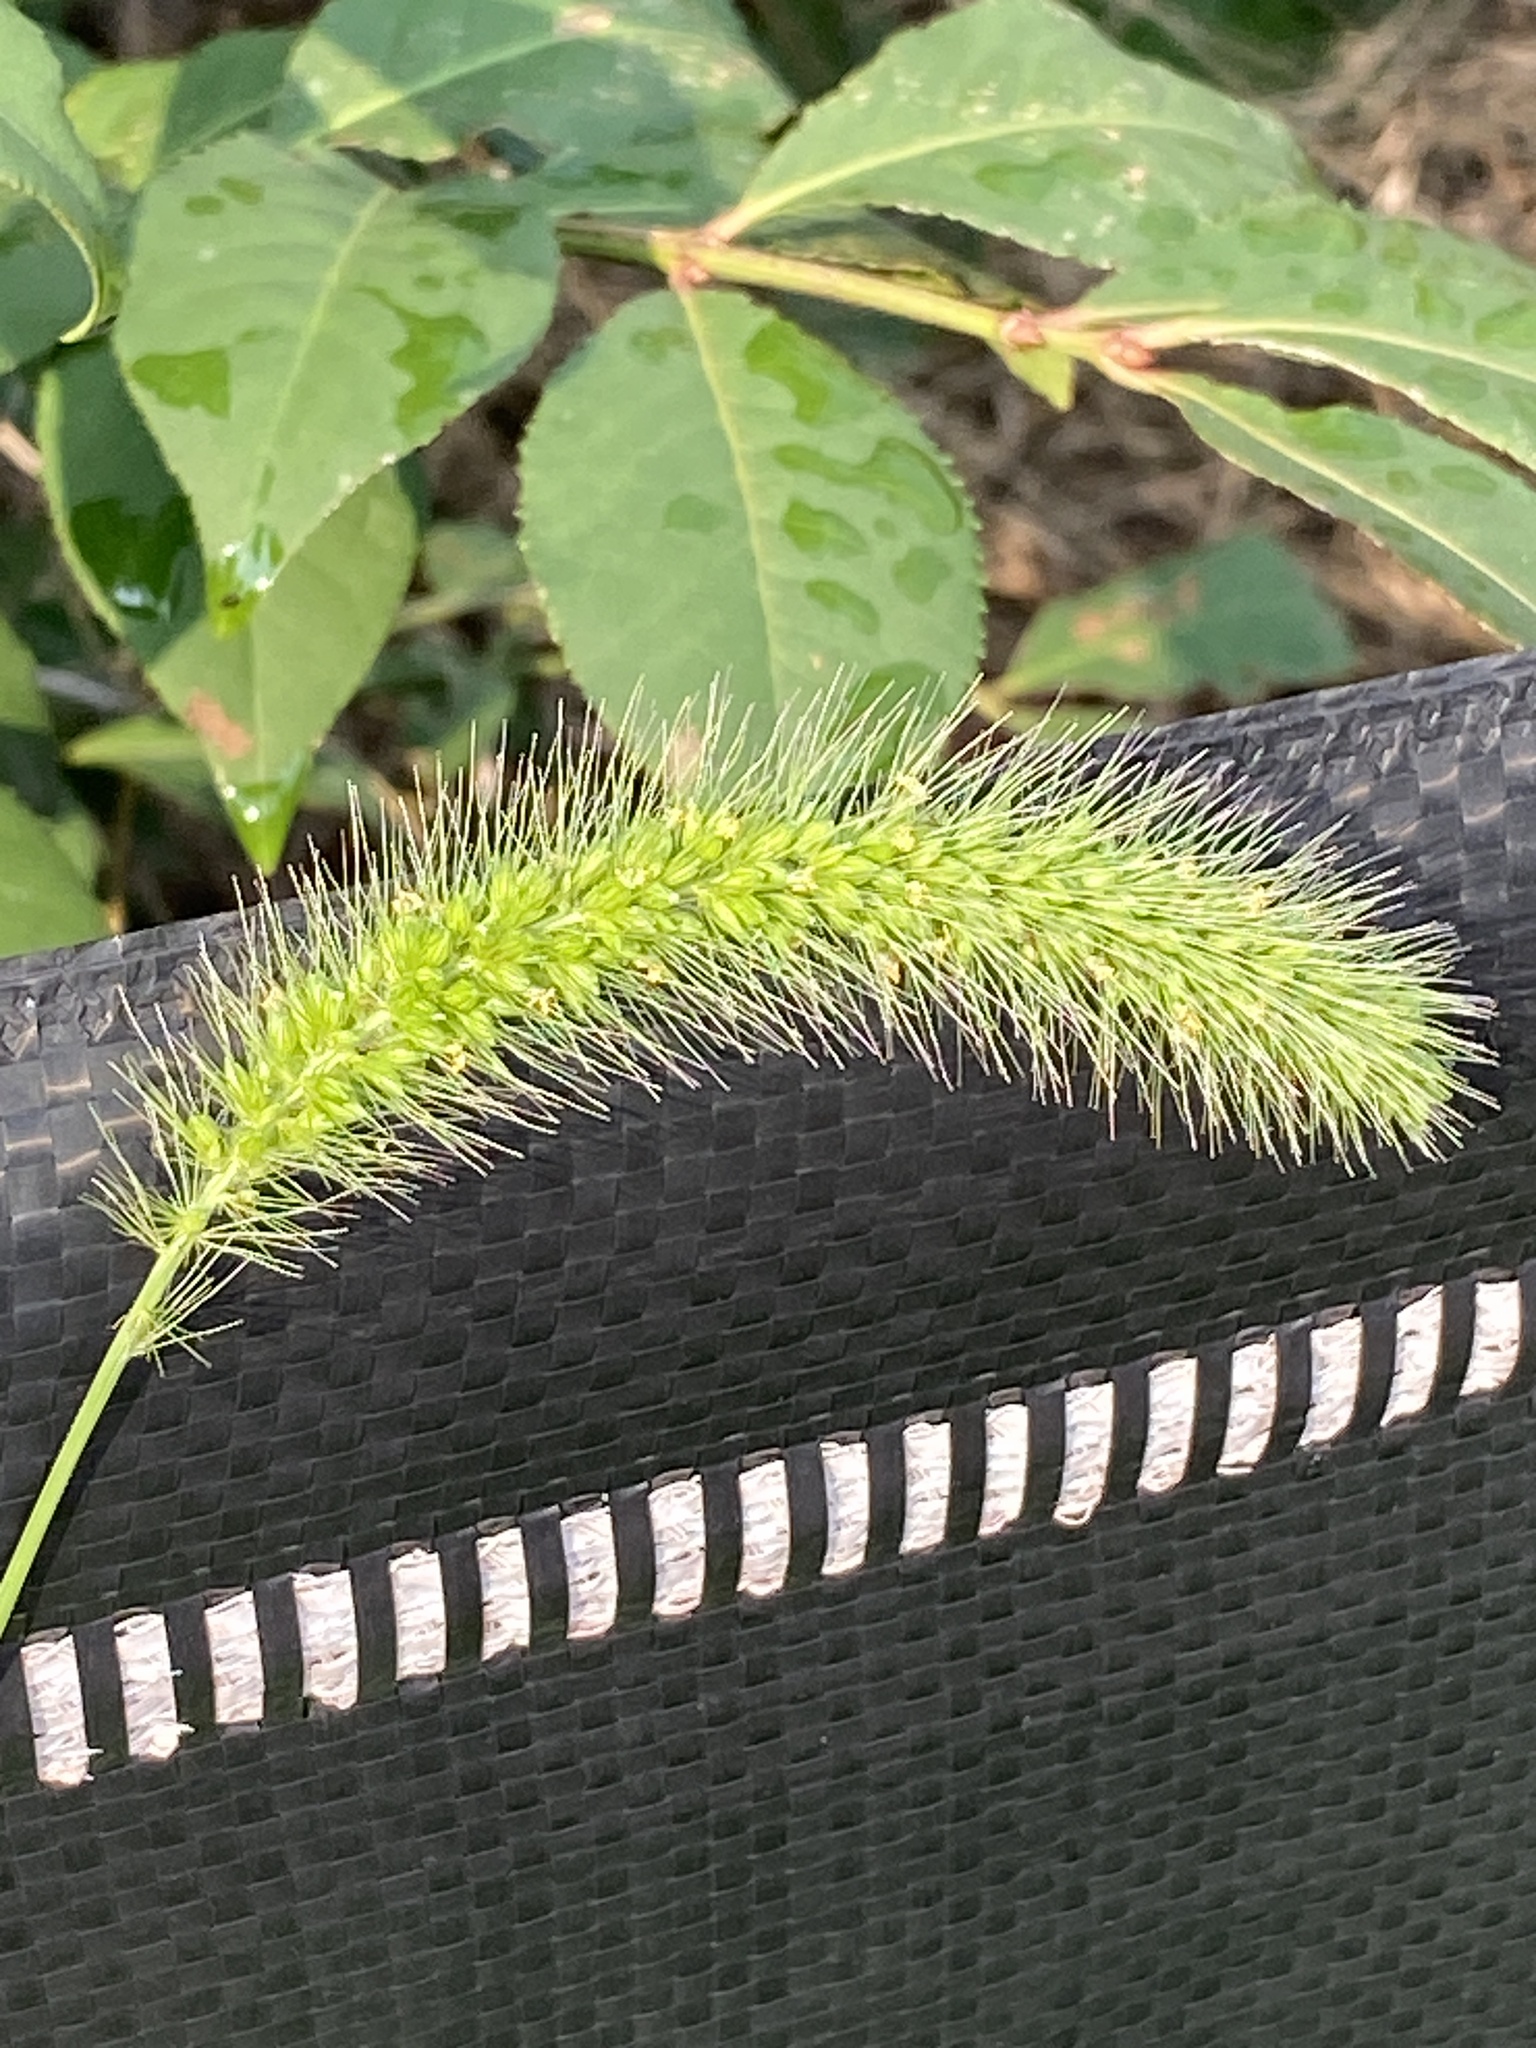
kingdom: Plantae
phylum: Tracheophyta
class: Liliopsida
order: Poales
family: Poaceae
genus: Setaria
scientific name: Setaria faberi
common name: Nodding bristle-grass
